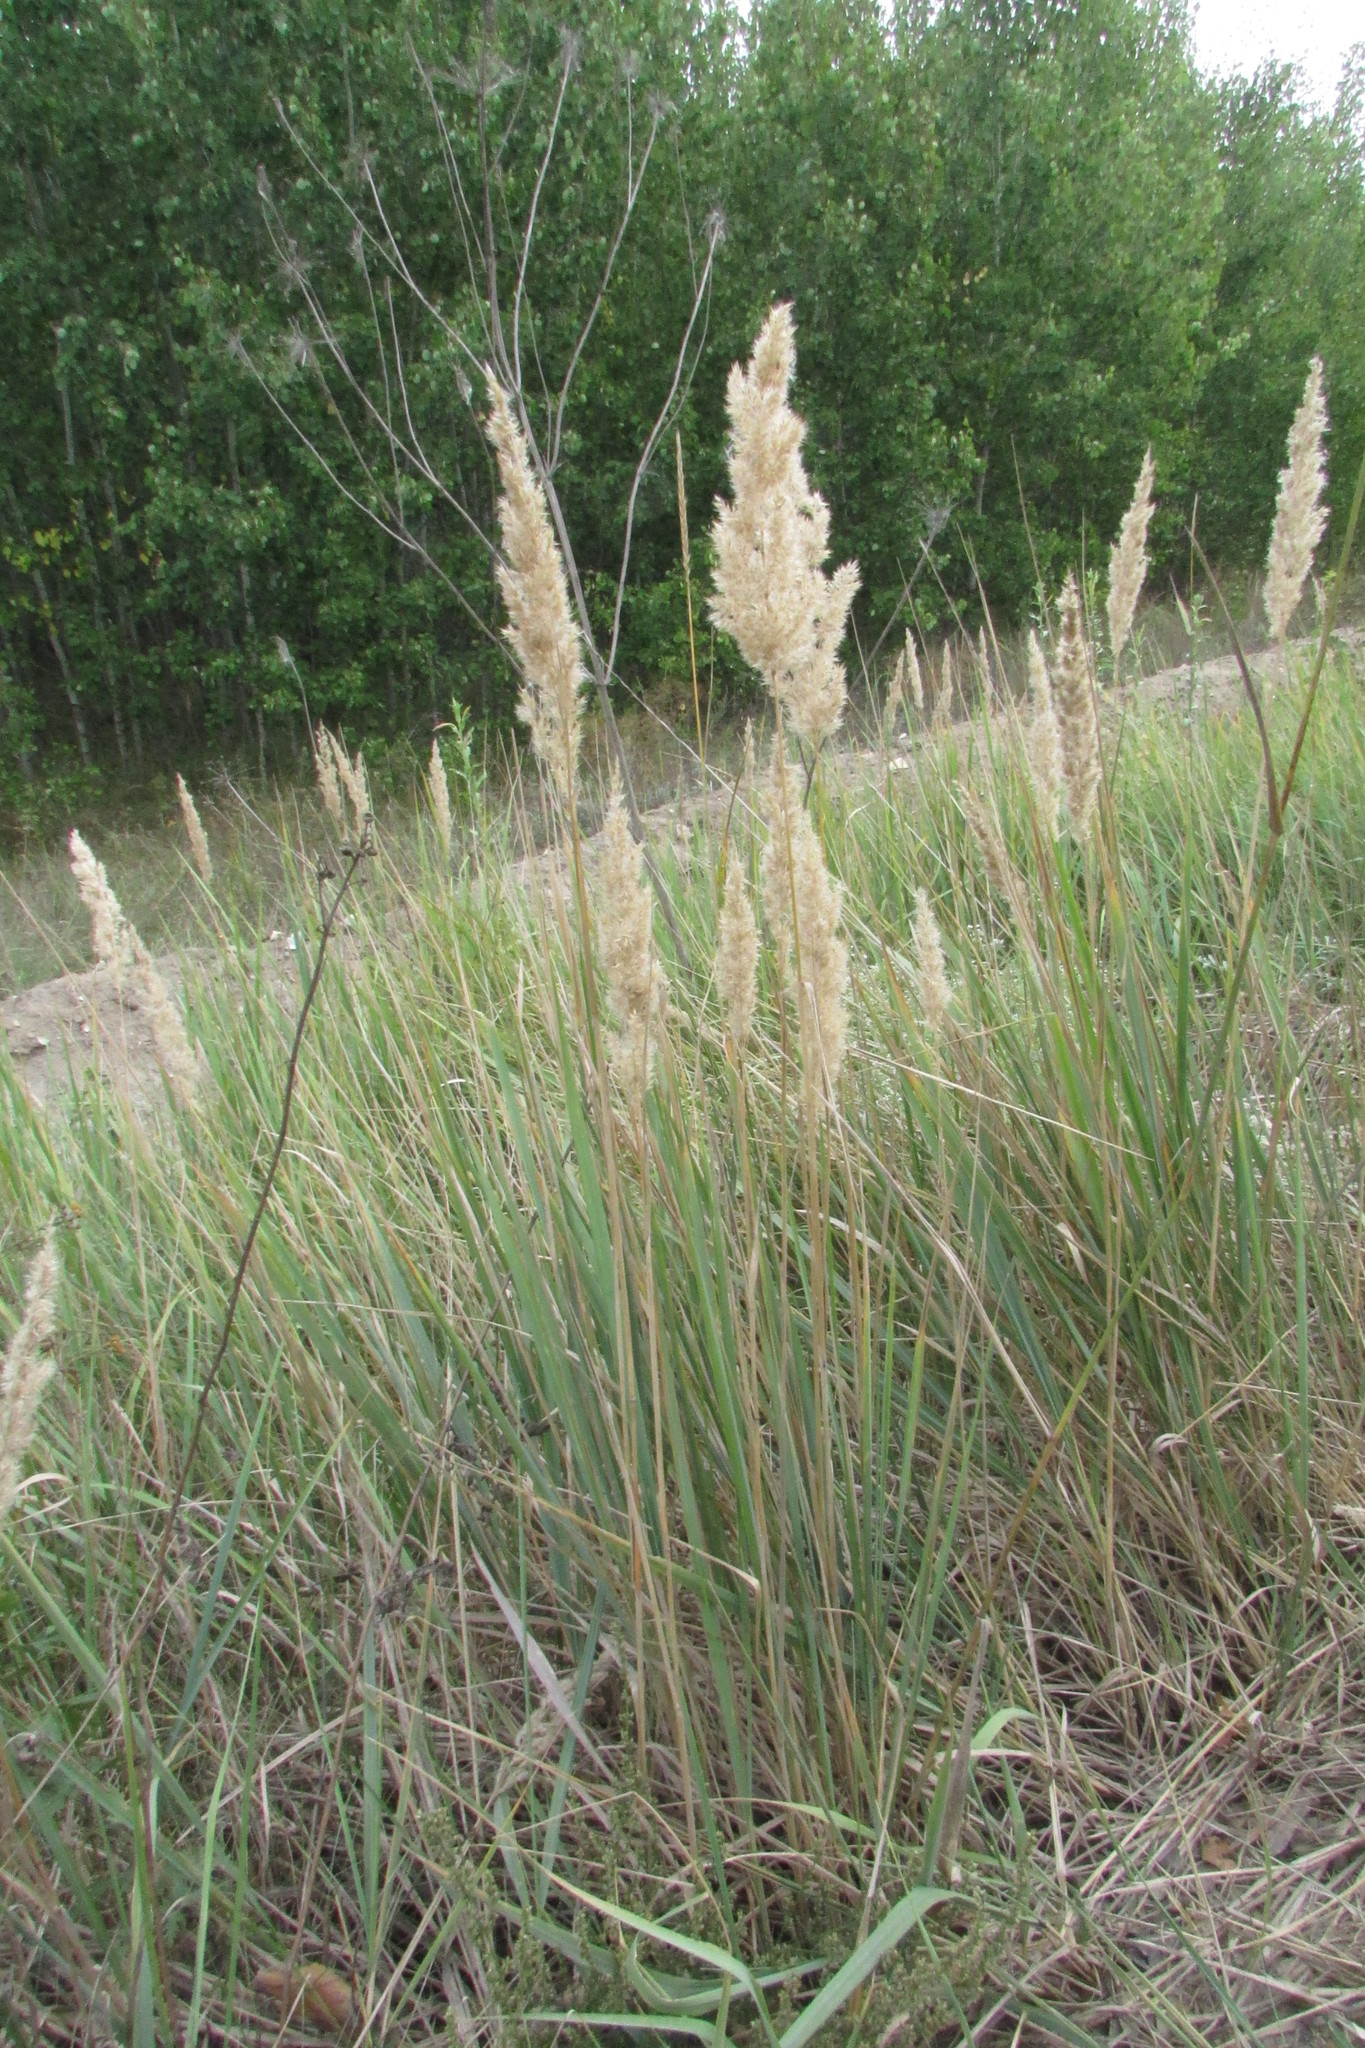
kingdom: Plantae
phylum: Tracheophyta
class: Liliopsida
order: Poales
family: Poaceae
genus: Calamagrostis
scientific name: Calamagrostis epigejos
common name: Wood small-reed
